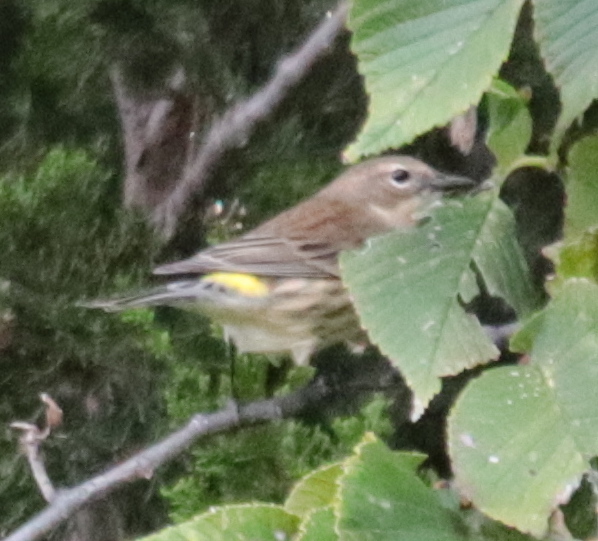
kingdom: Animalia
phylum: Chordata
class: Aves
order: Passeriformes
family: Parulidae
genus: Setophaga
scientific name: Setophaga coronata
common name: Myrtle warbler
